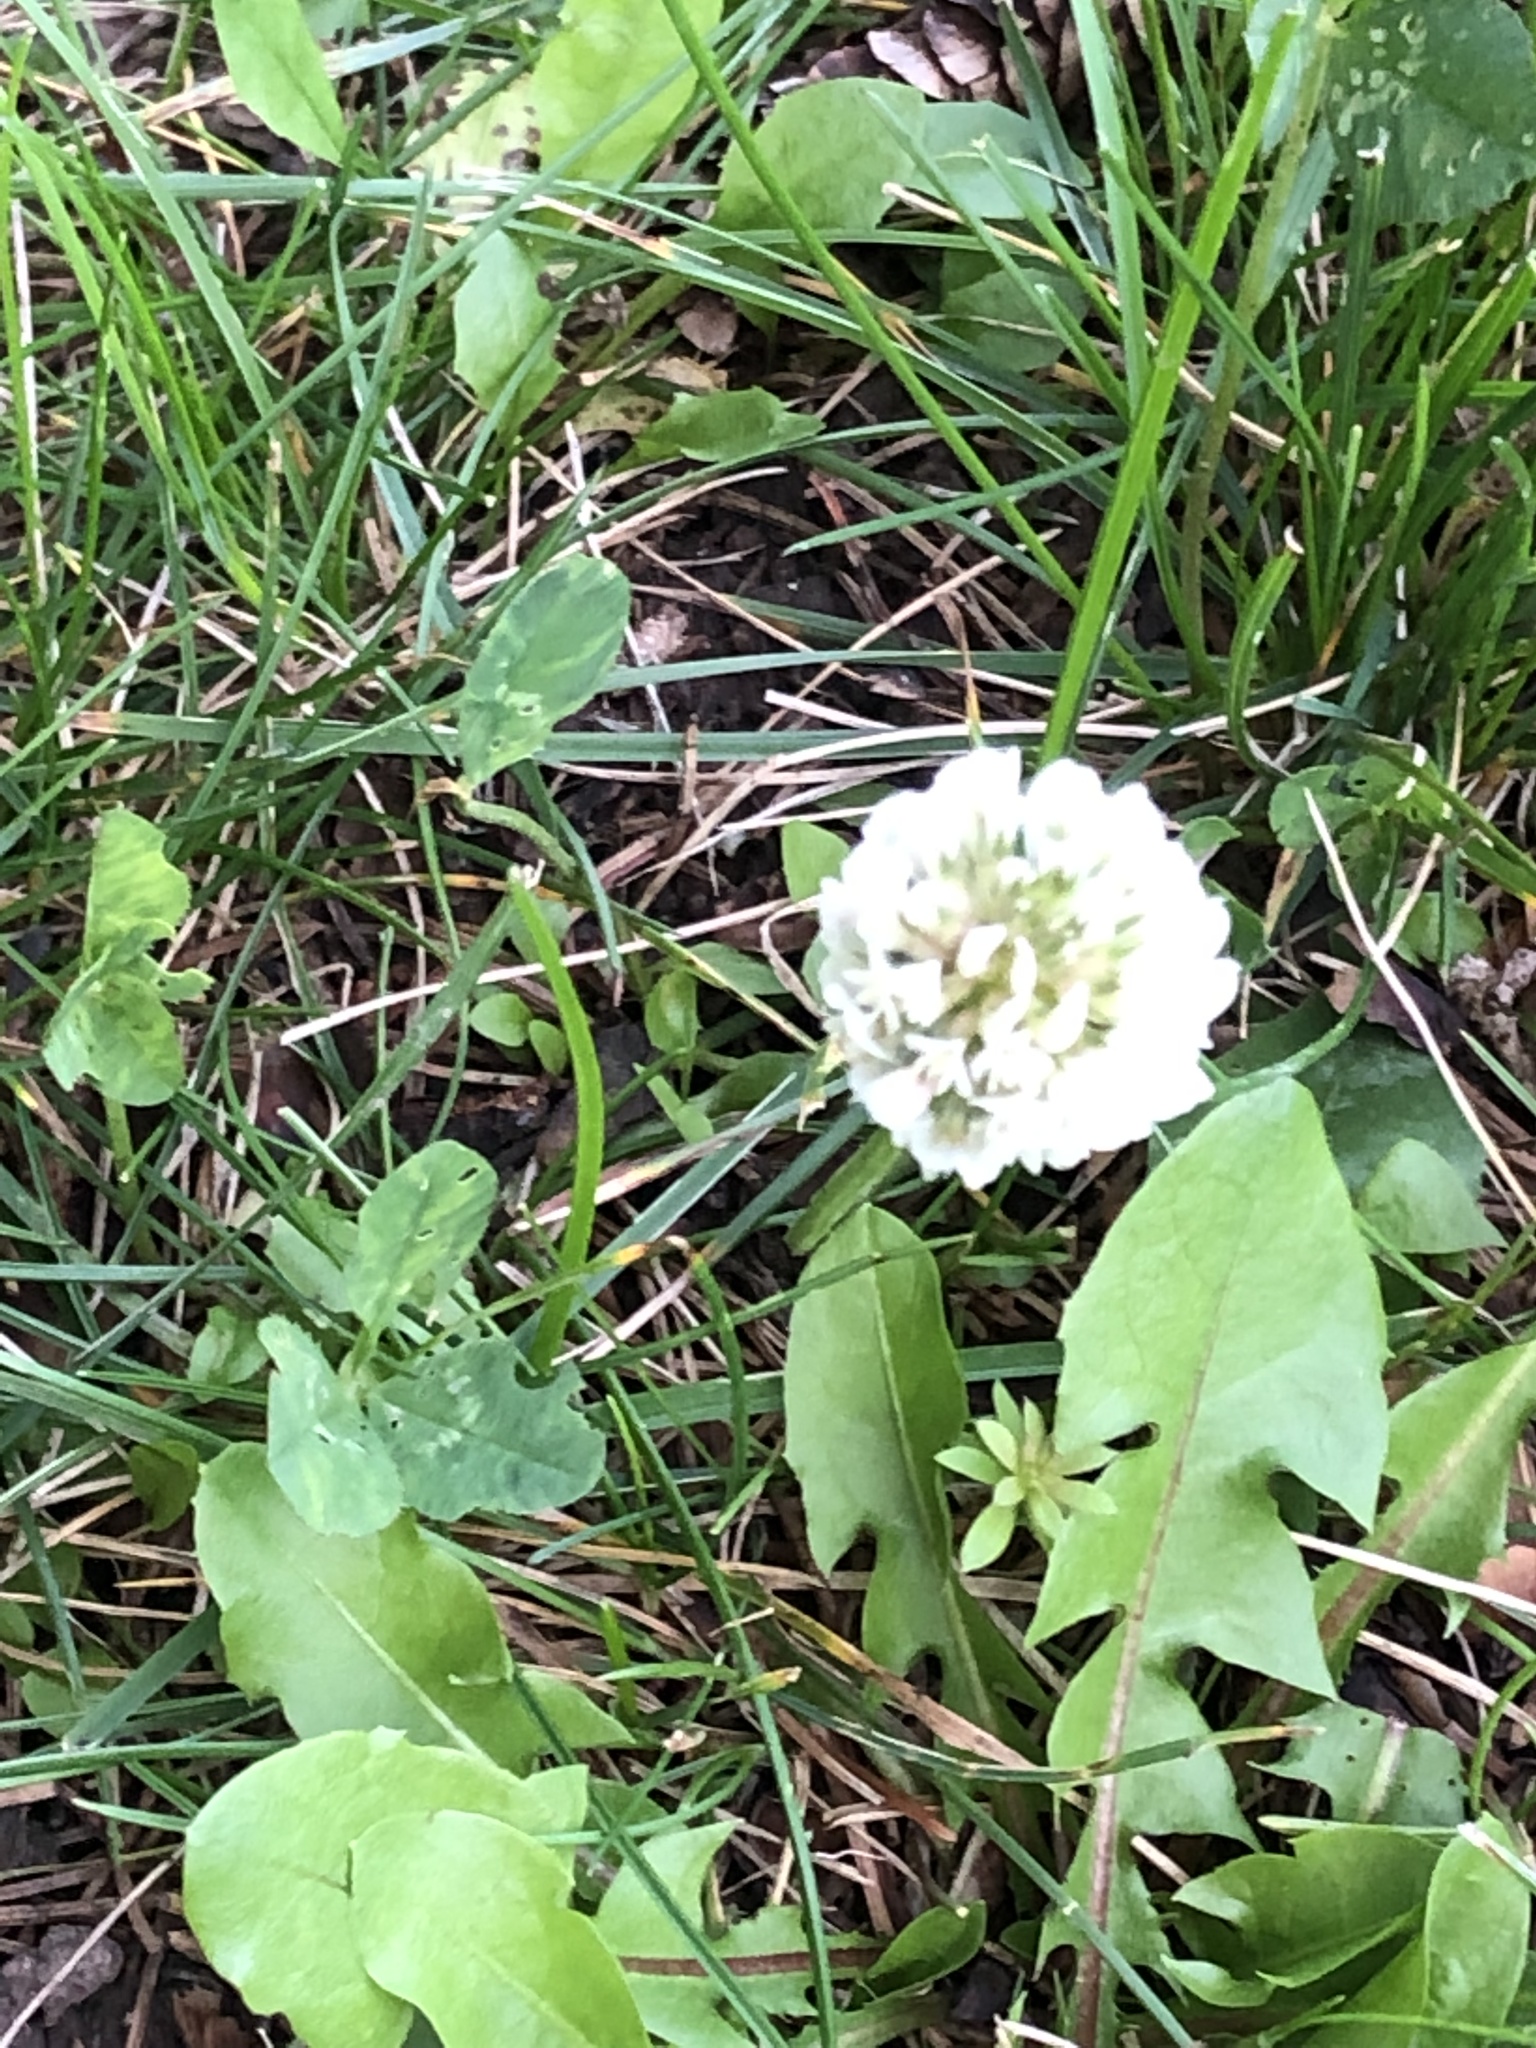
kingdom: Plantae
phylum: Tracheophyta
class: Magnoliopsida
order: Fabales
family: Fabaceae
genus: Trifolium
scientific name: Trifolium repens
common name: White clover
